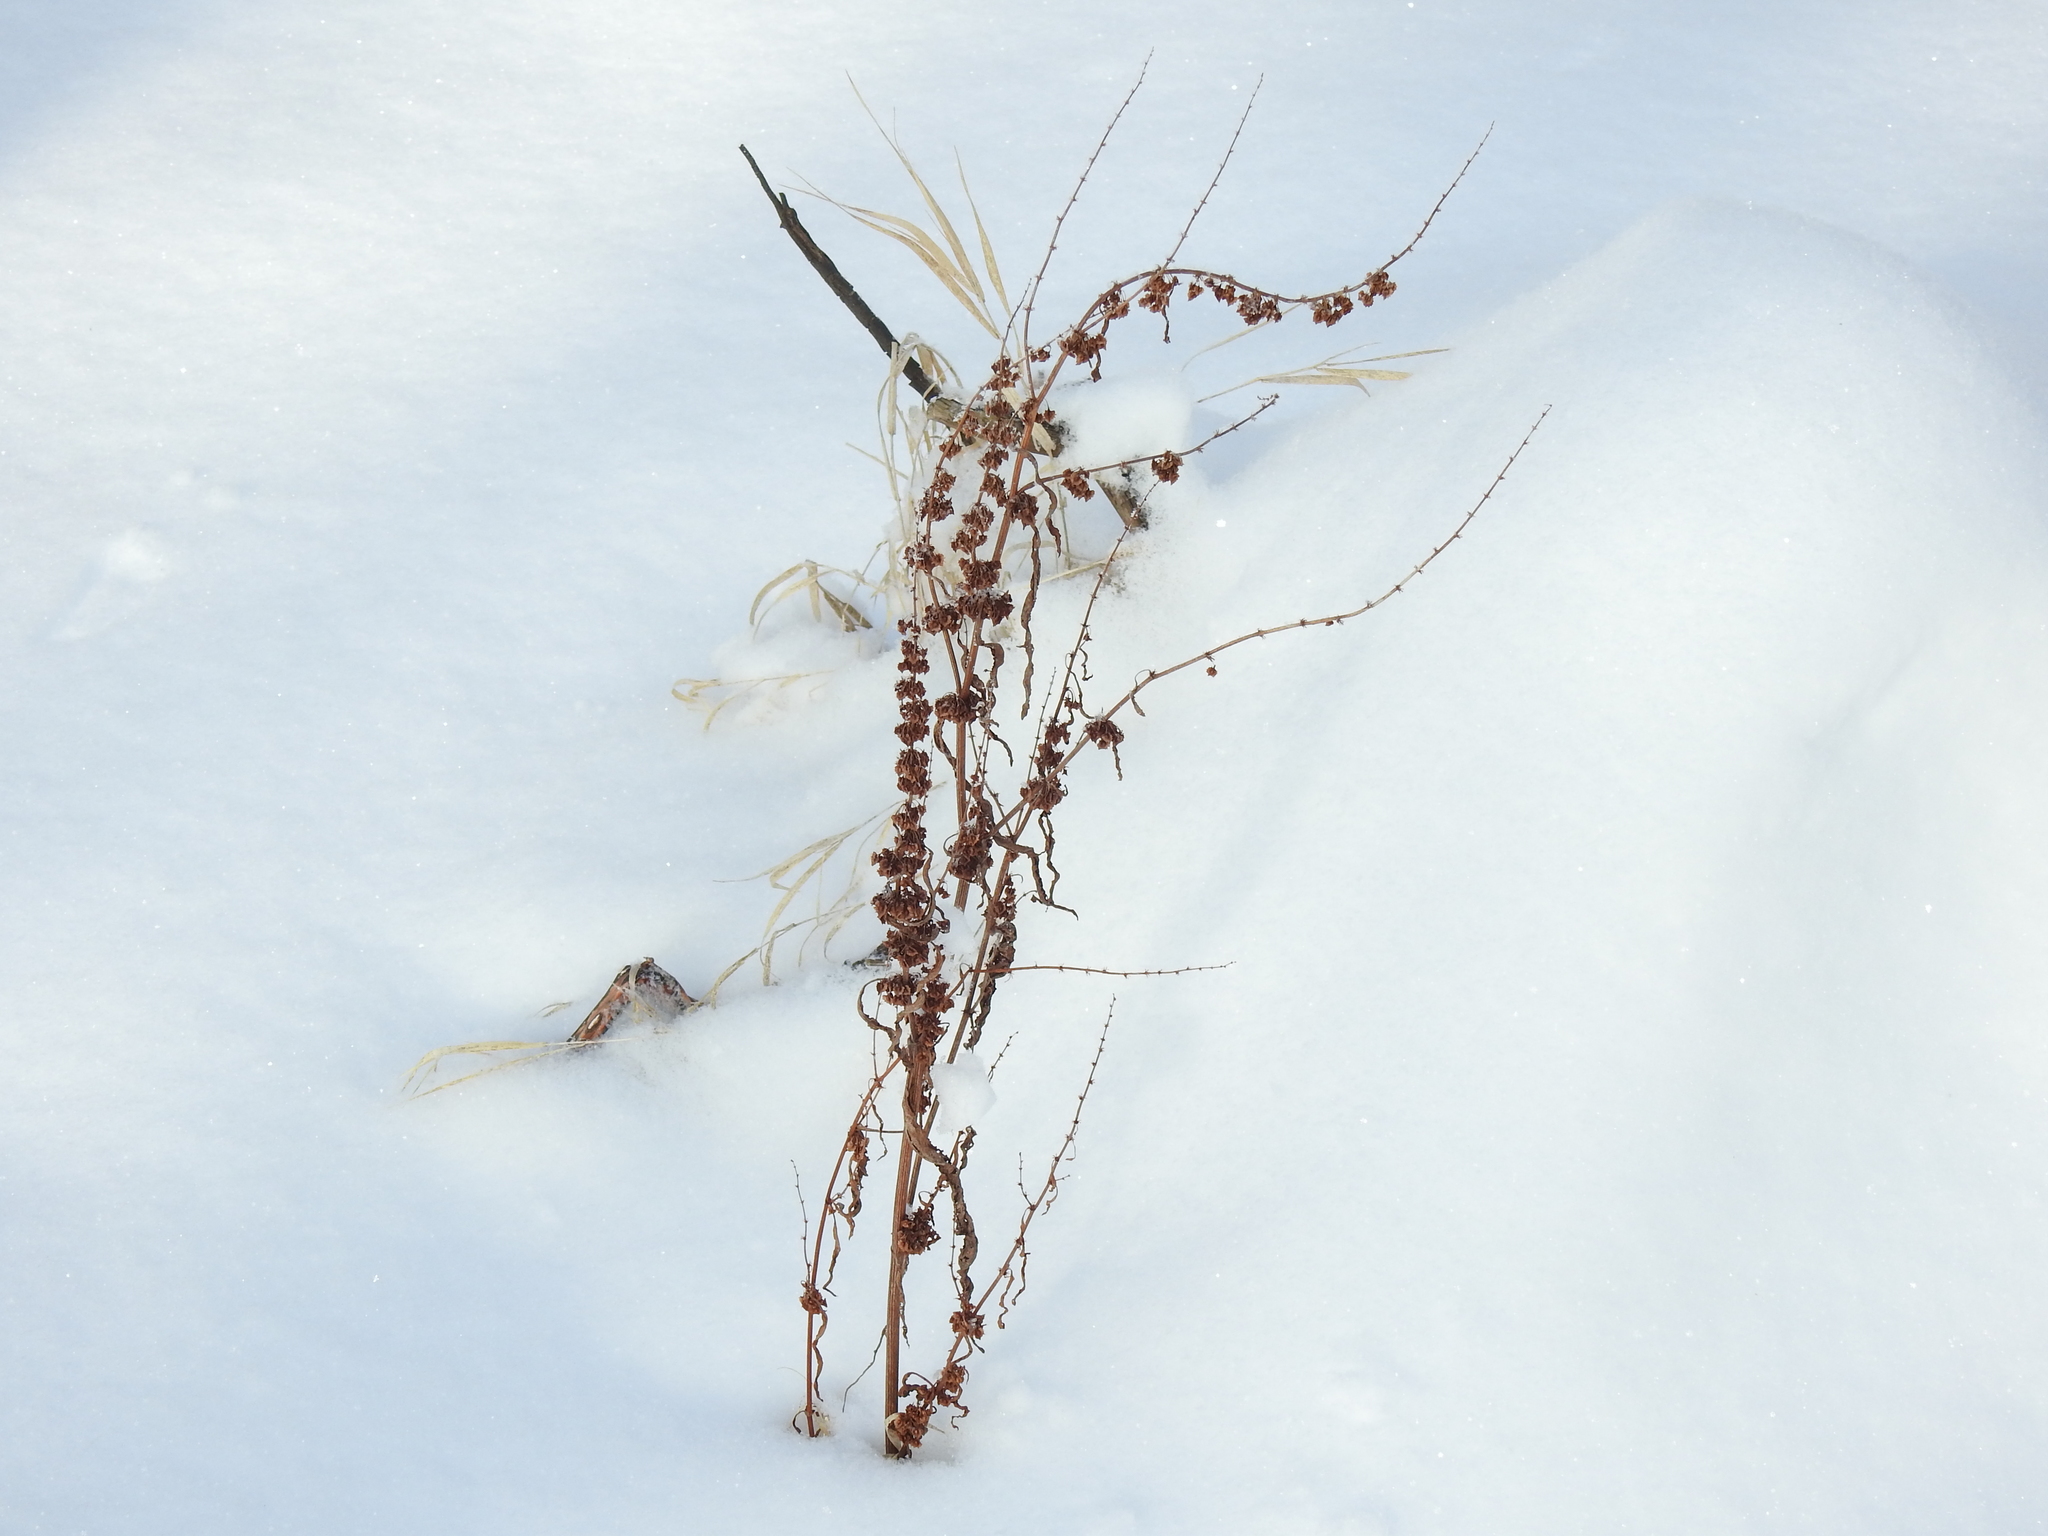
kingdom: Plantae
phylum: Tracheophyta
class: Magnoliopsida
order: Caryophyllales
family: Polygonaceae
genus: Rumex
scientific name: Rumex
